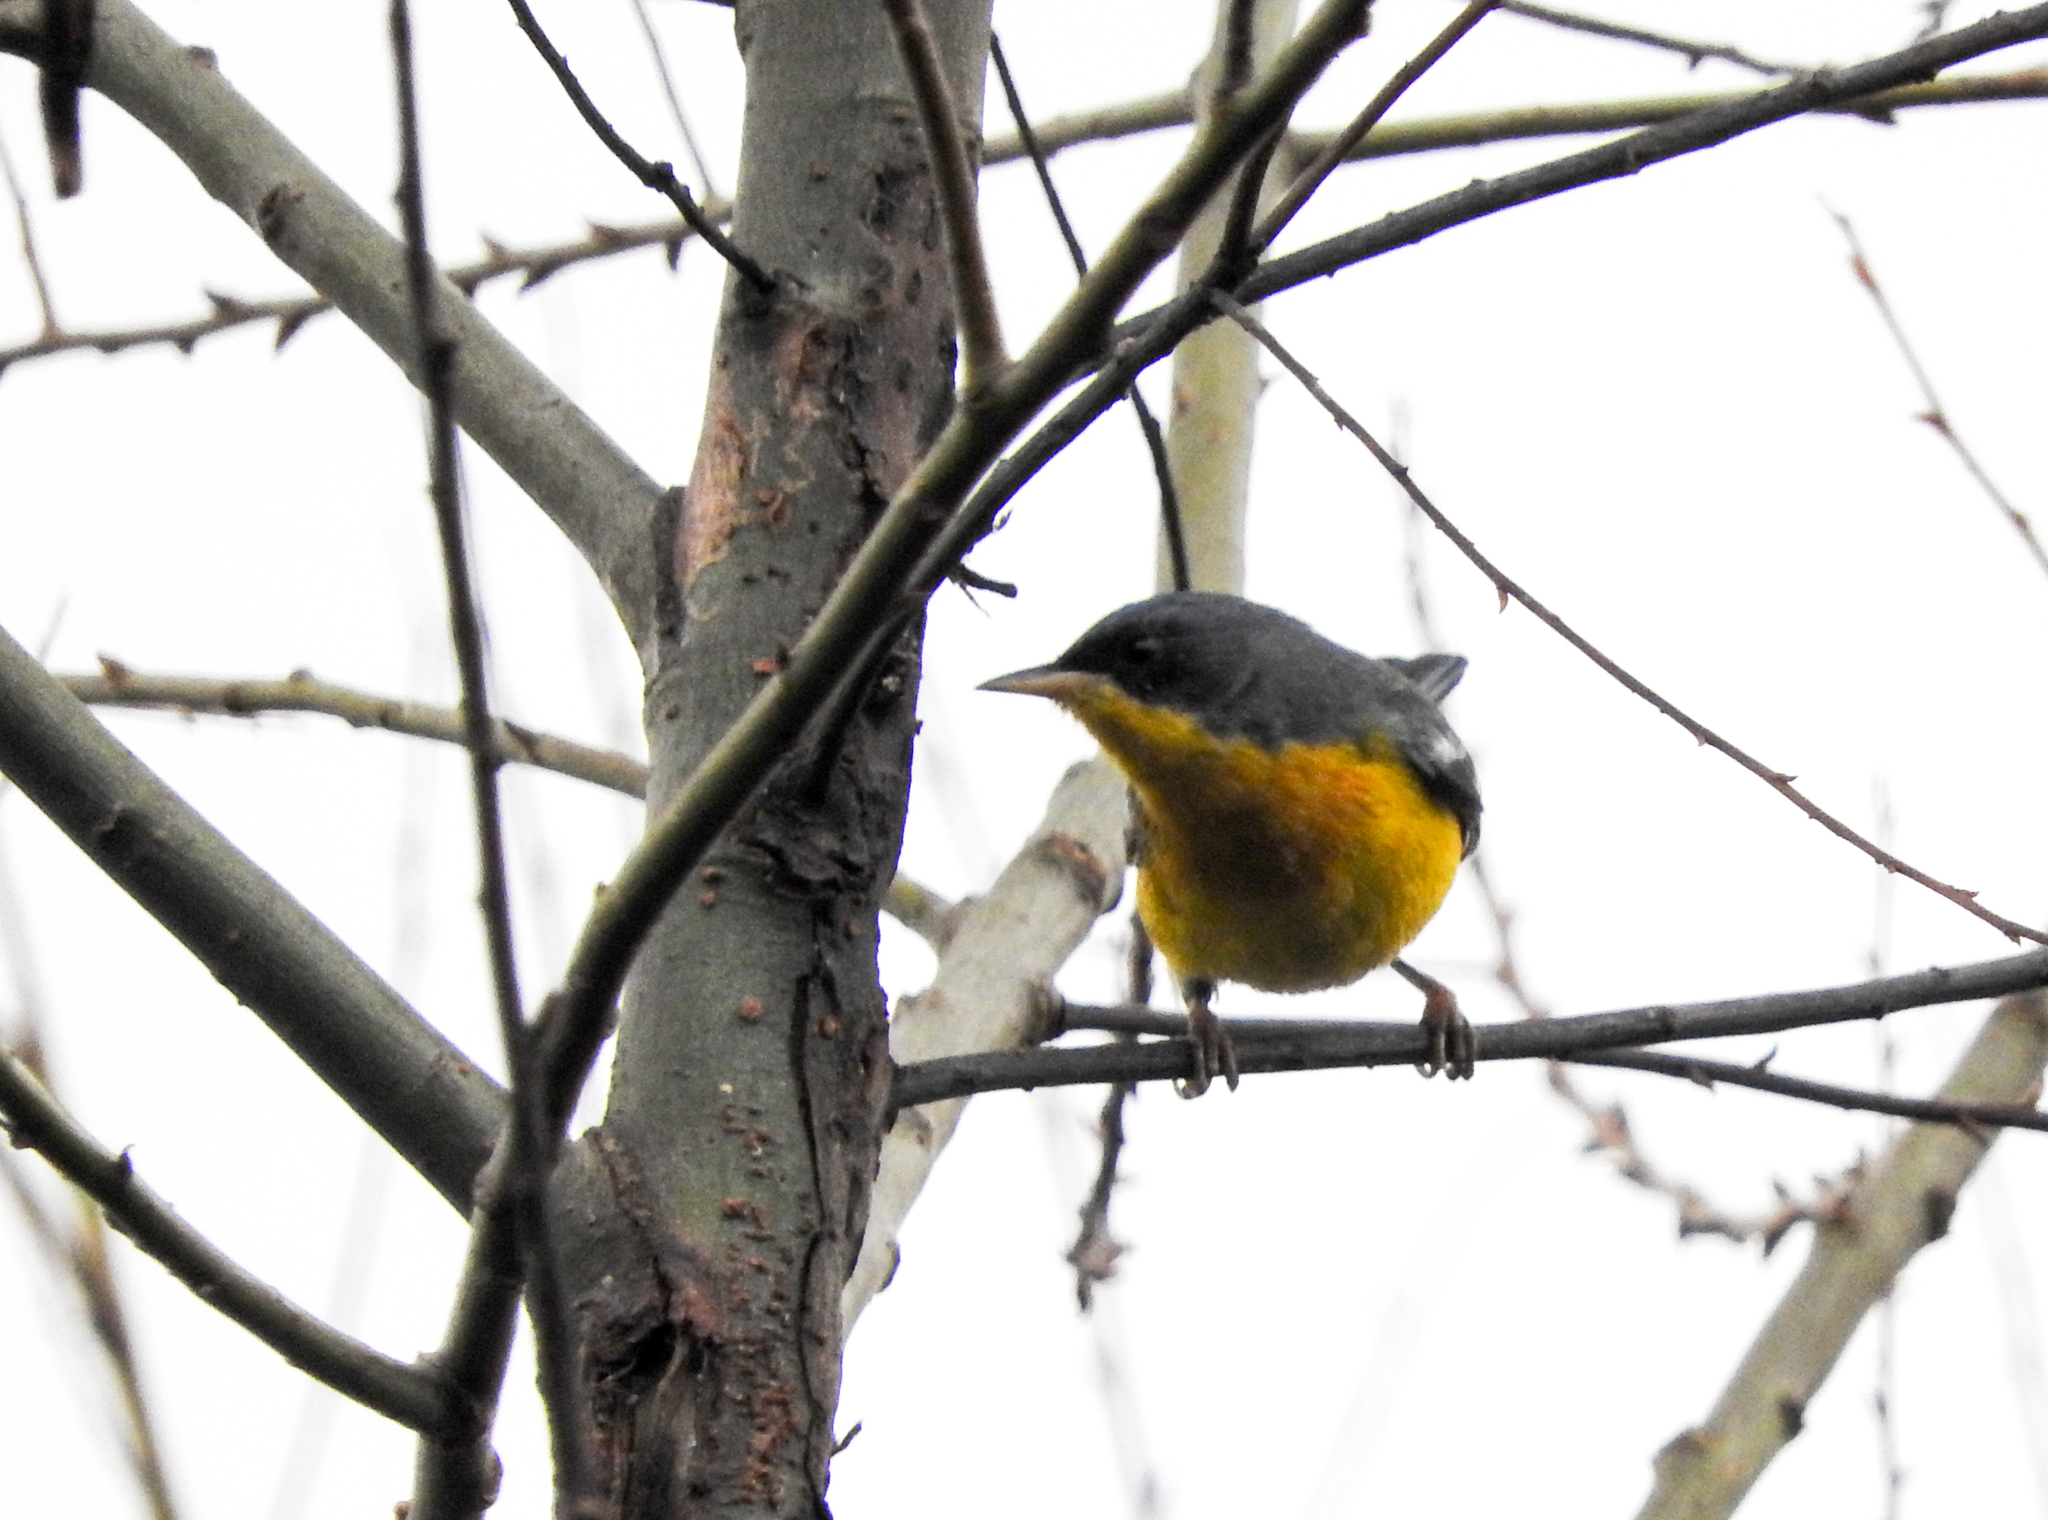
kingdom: Animalia
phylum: Chordata
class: Aves
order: Passeriformes
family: Parulidae
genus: Setophaga
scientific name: Setophaga pitiayumi
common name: Tropical parula
